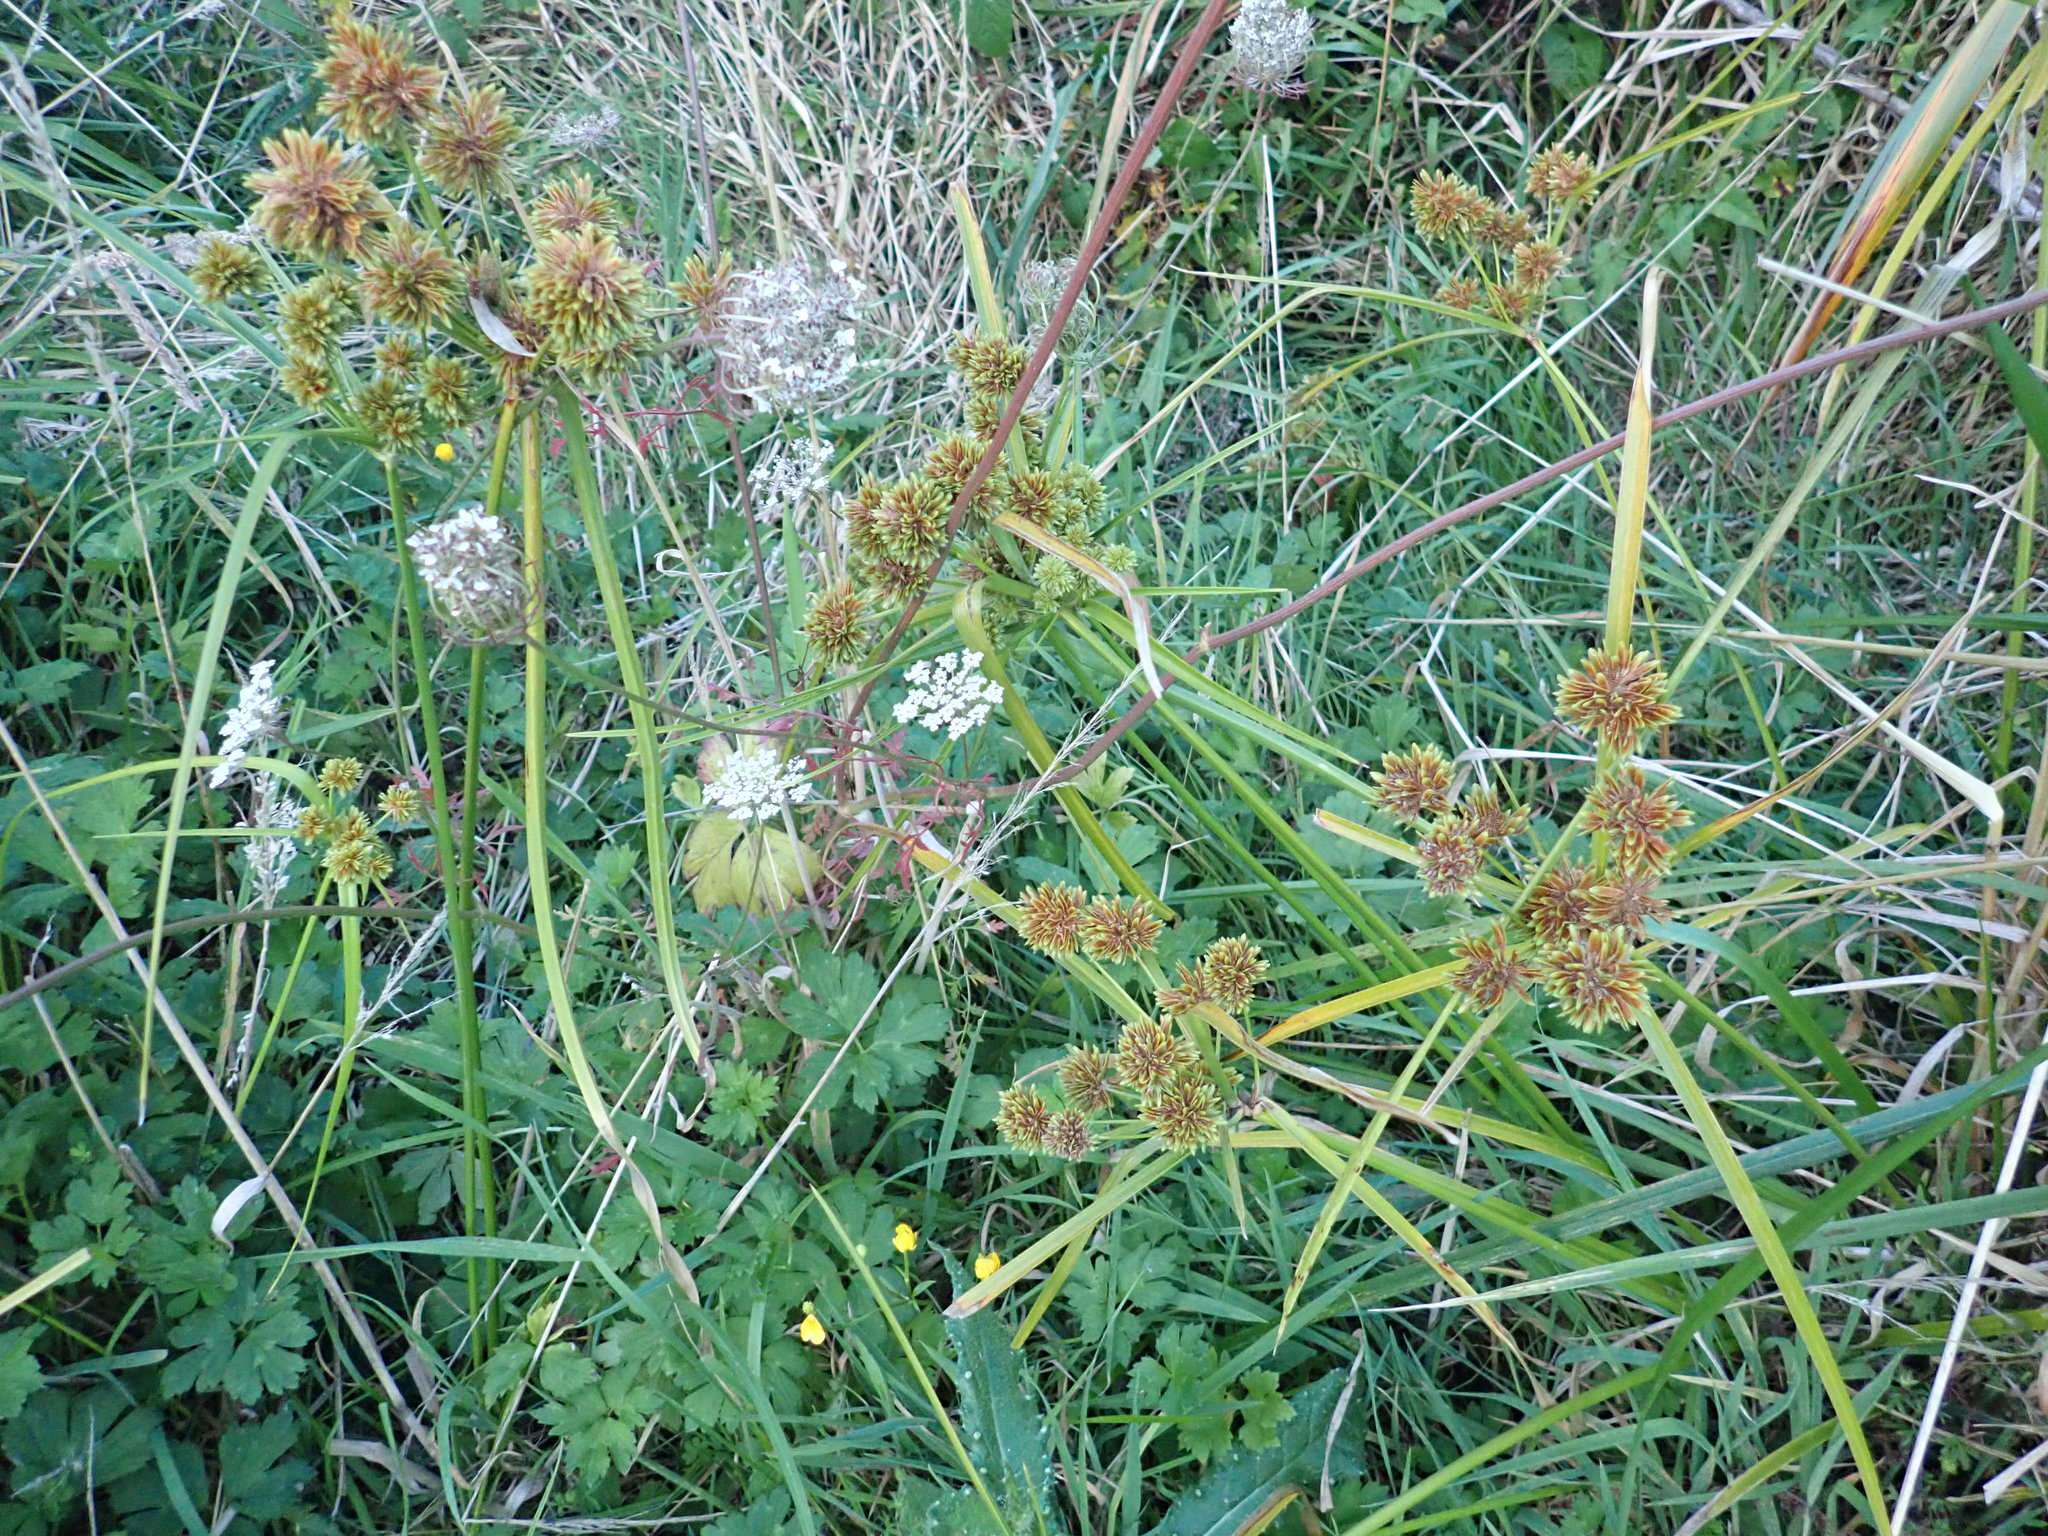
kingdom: Plantae
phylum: Tracheophyta
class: Liliopsida
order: Poales
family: Cyperaceae
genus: Cyperus
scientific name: Cyperus eragrostis
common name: Tall flatsedge
